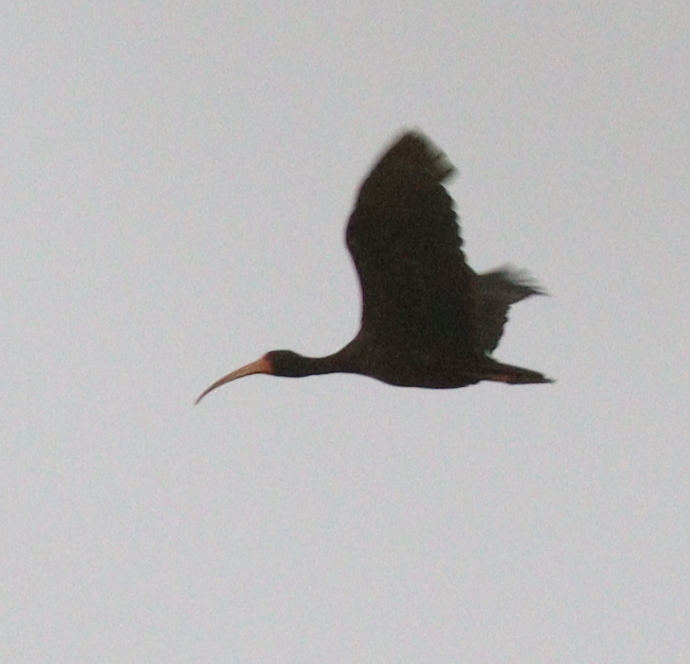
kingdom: Animalia
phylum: Chordata
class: Aves
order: Pelecaniformes
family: Threskiornithidae
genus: Phimosus
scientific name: Phimosus infuscatus
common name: Bare-faced ibis
